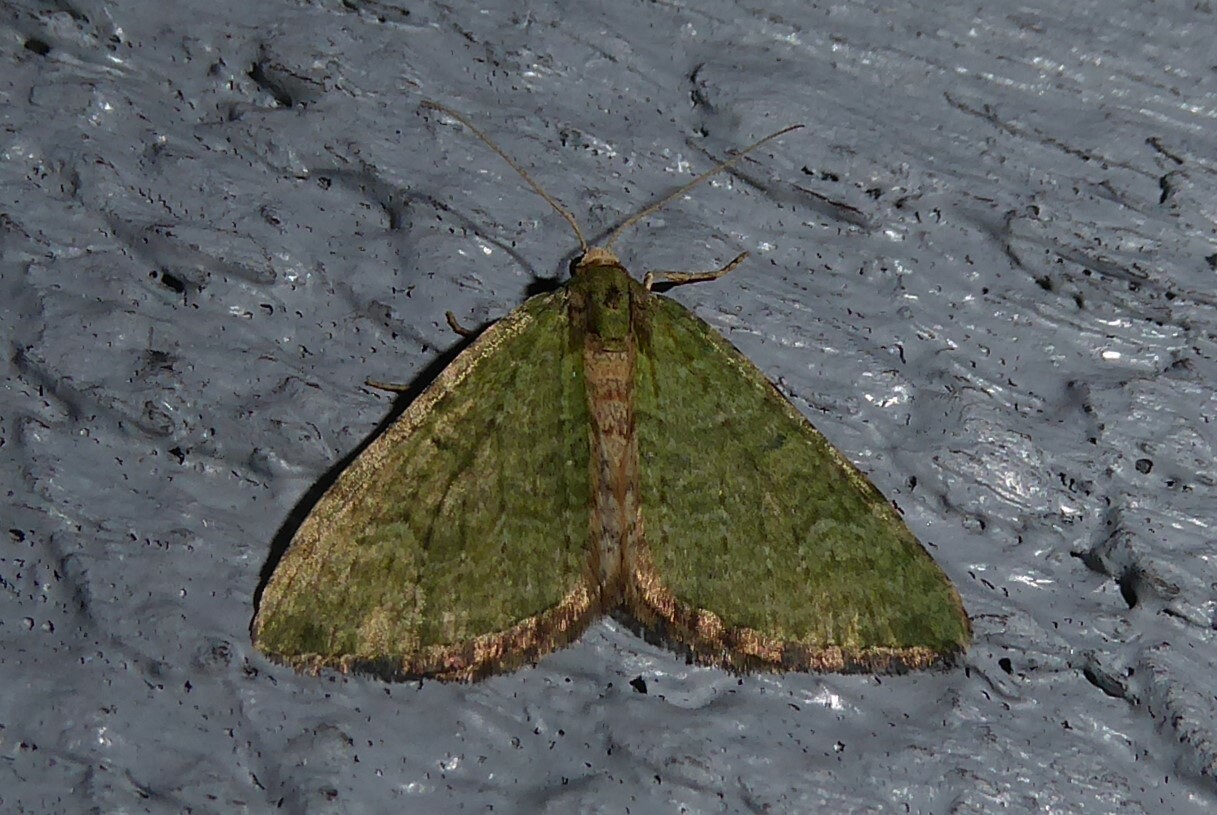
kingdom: Animalia
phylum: Arthropoda
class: Insecta
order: Lepidoptera
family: Geometridae
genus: Epyaxa
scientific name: Epyaxa rosearia
